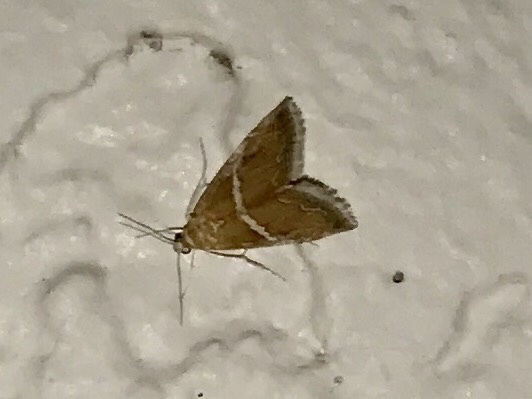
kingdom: Animalia
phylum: Arthropoda
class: Insecta
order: Lepidoptera
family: Crambidae
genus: Abegesta
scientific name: Abegesta reluctalis
